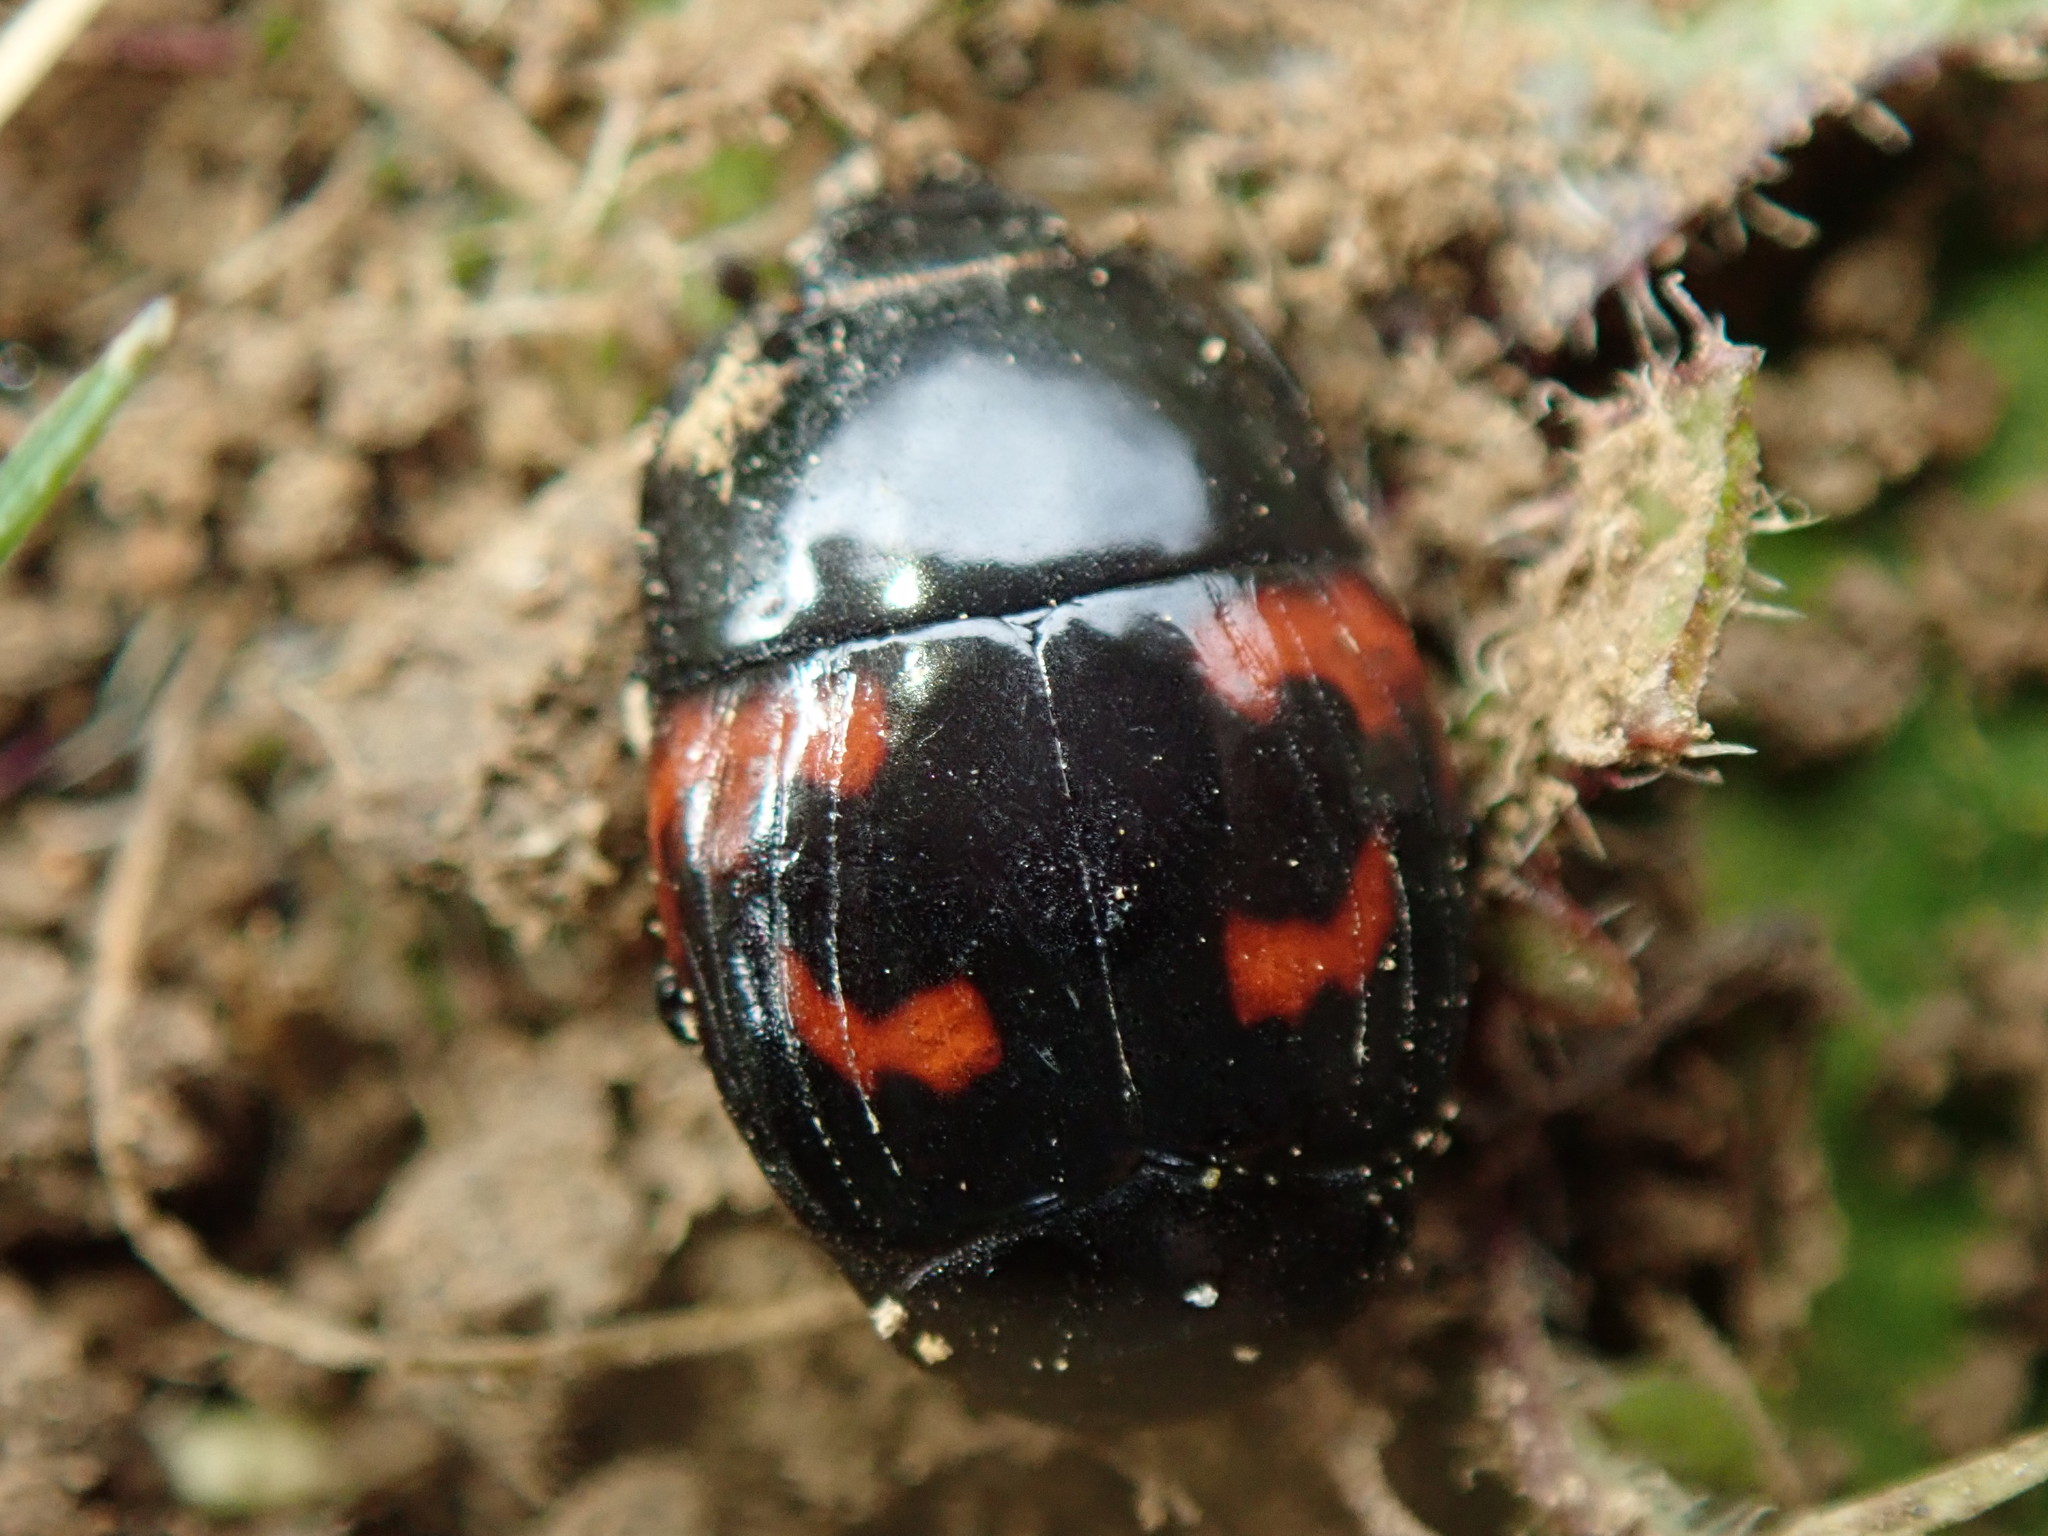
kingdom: Animalia
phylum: Arthropoda
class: Insecta
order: Coleoptera
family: Histeridae
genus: Hister
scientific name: Hister quadrimaculatus
